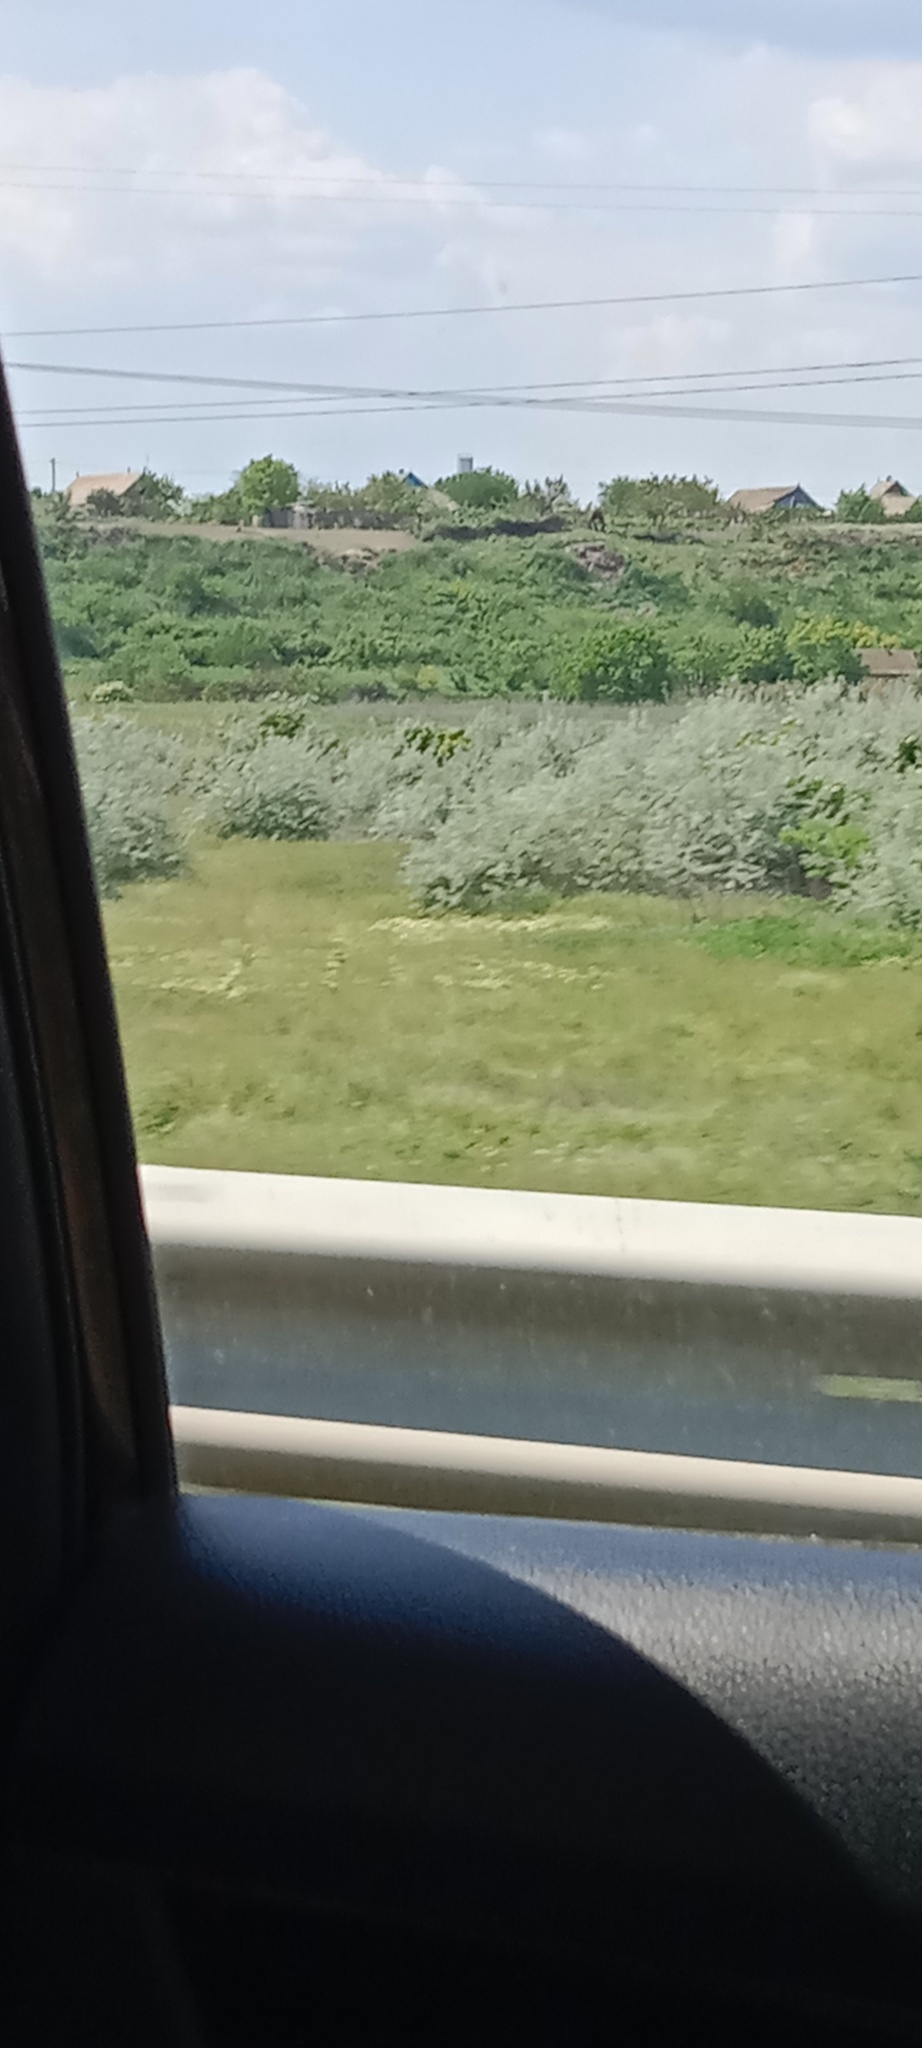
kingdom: Plantae
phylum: Tracheophyta
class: Magnoliopsida
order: Rosales
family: Elaeagnaceae
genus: Elaeagnus
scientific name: Elaeagnus angustifolia
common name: Russian olive
